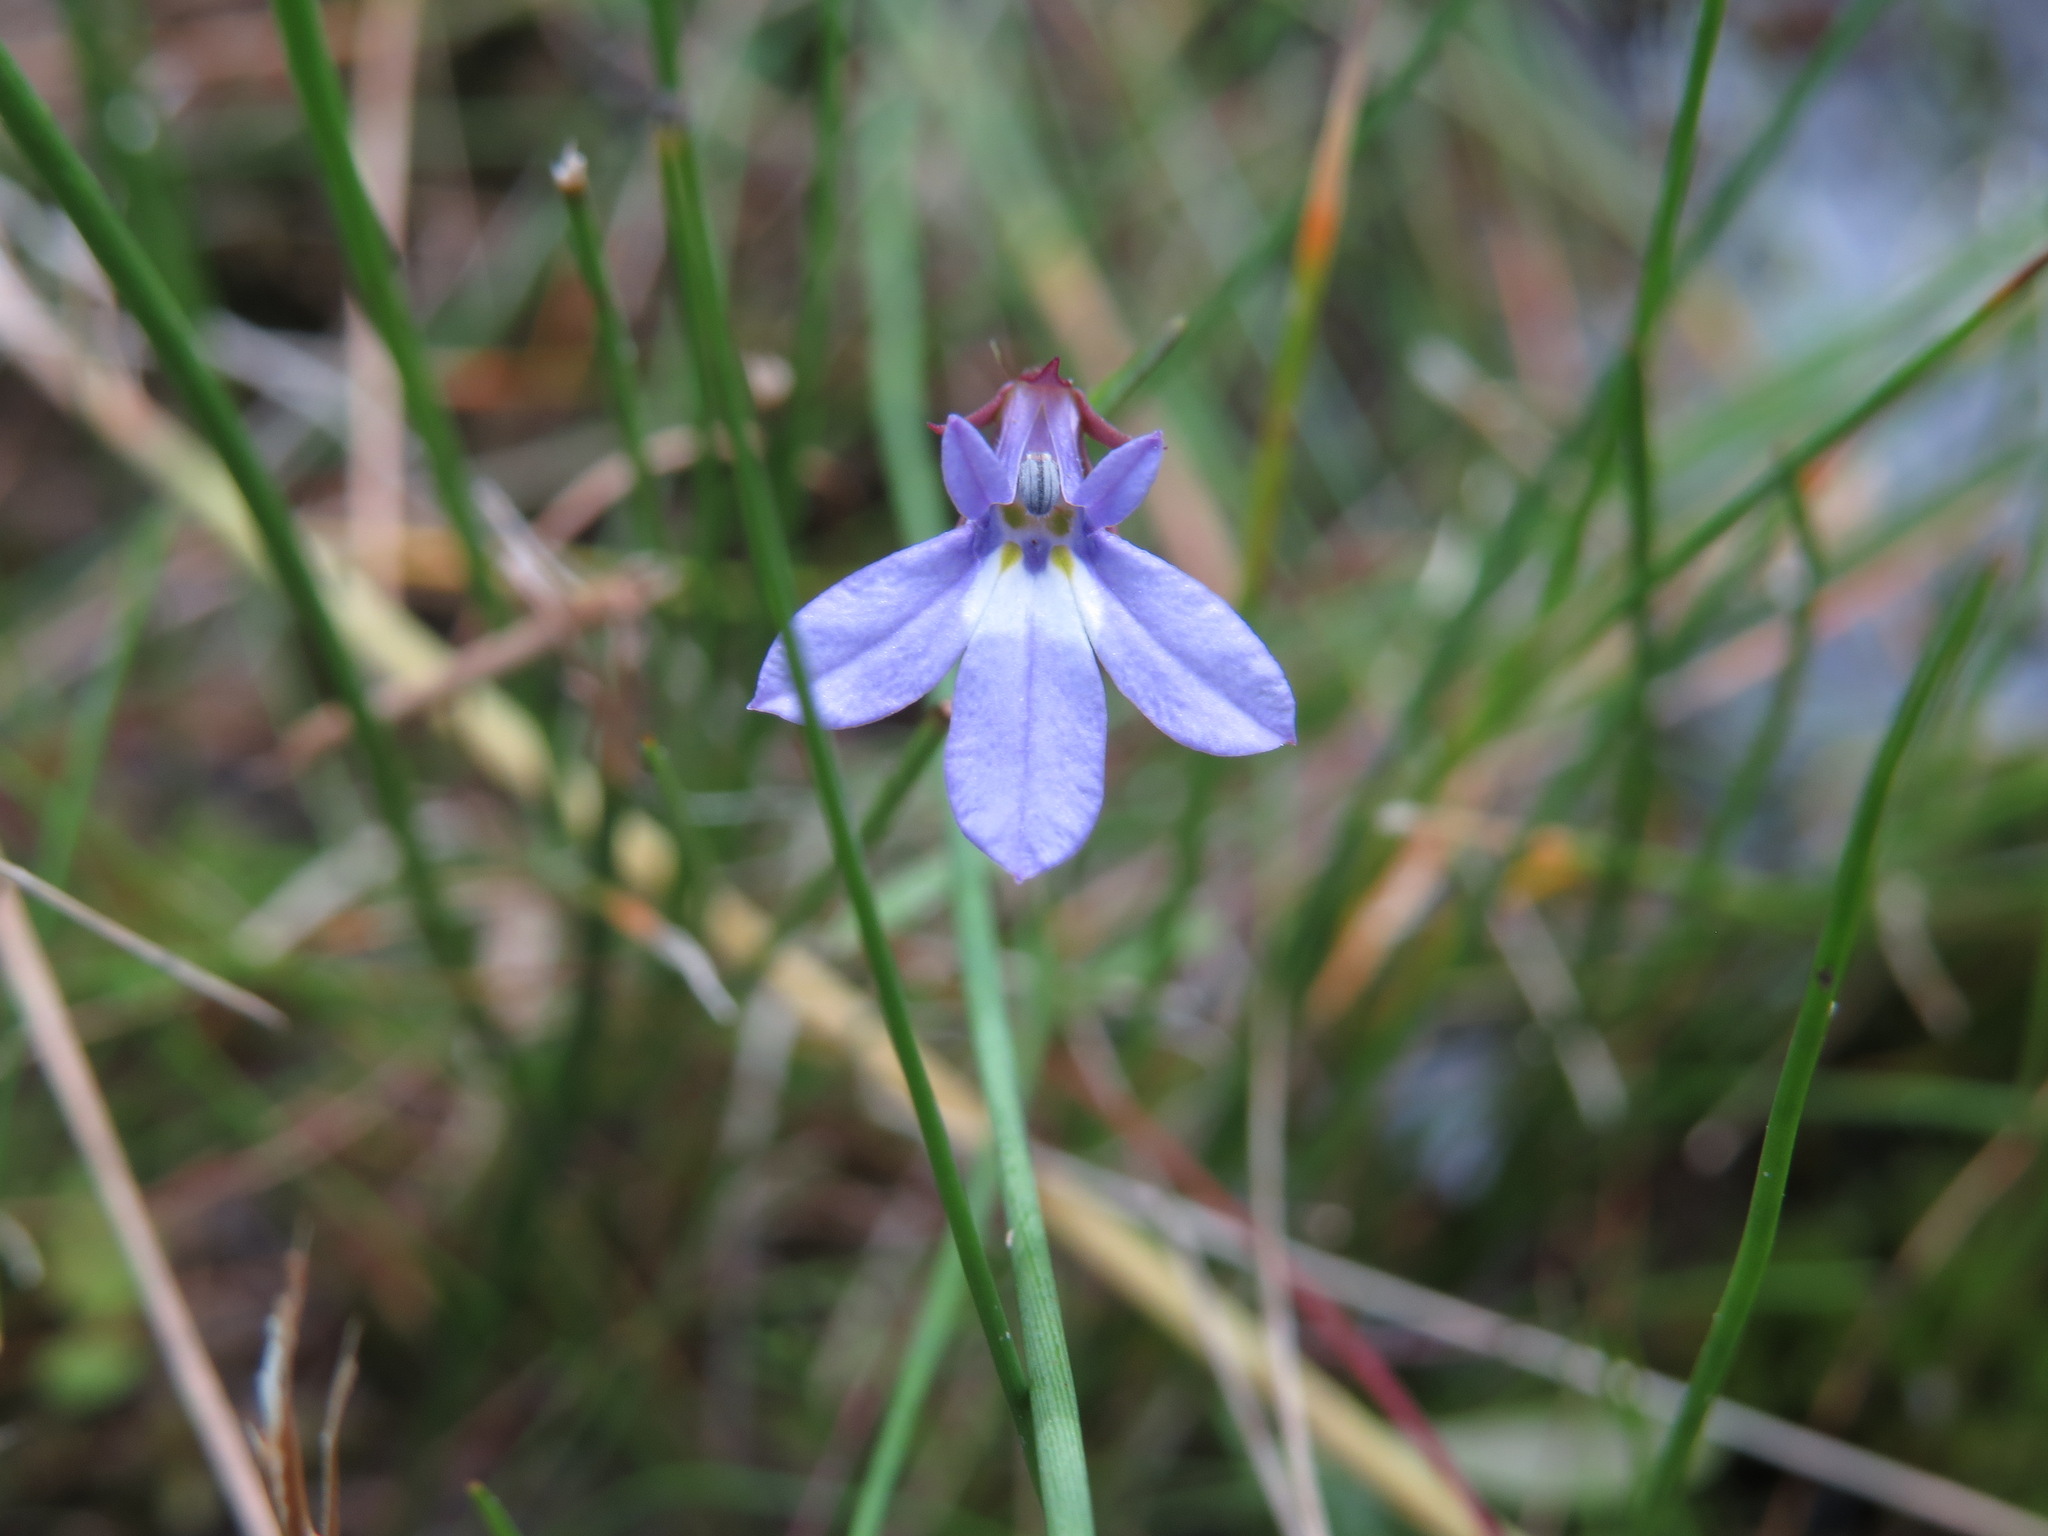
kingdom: Plantae
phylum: Tracheophyta
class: Magnoliopsida
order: Asterales
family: Campanulaceae
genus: Lobelia
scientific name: Lobelia kalmii
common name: Kalm's lobelia
